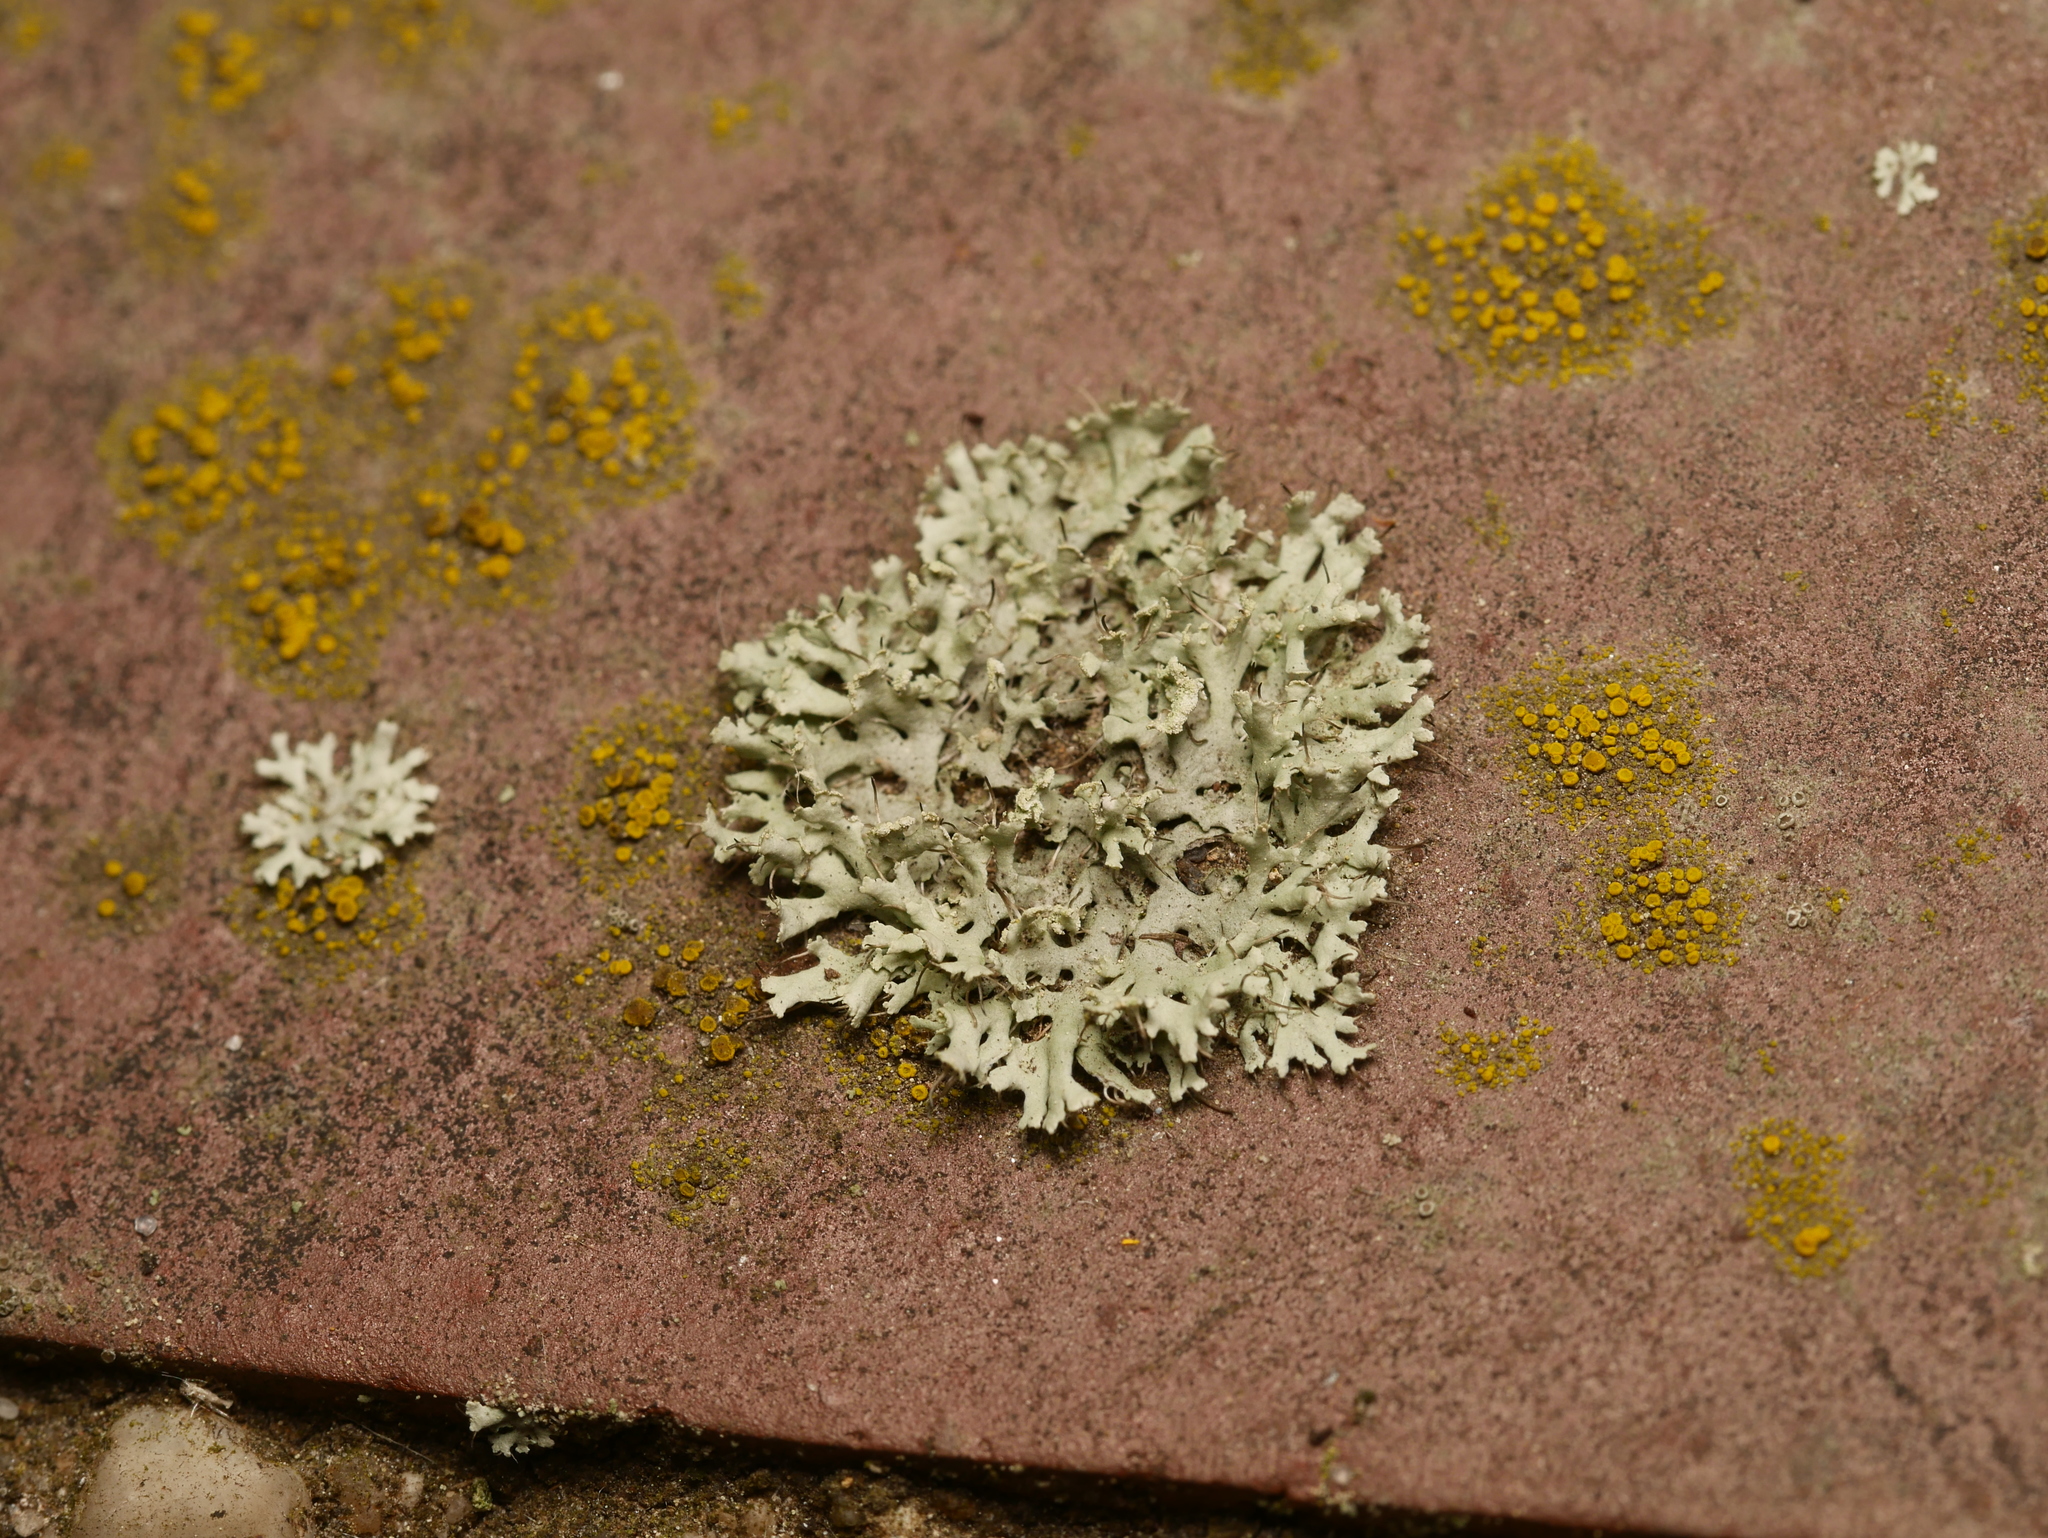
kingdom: Fungi
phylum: Ascomycota
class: Lecanoromycetes
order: Caliciales
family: Physciaceae
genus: Physcia
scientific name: Physcia tenella
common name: Fringed rosette lichen
